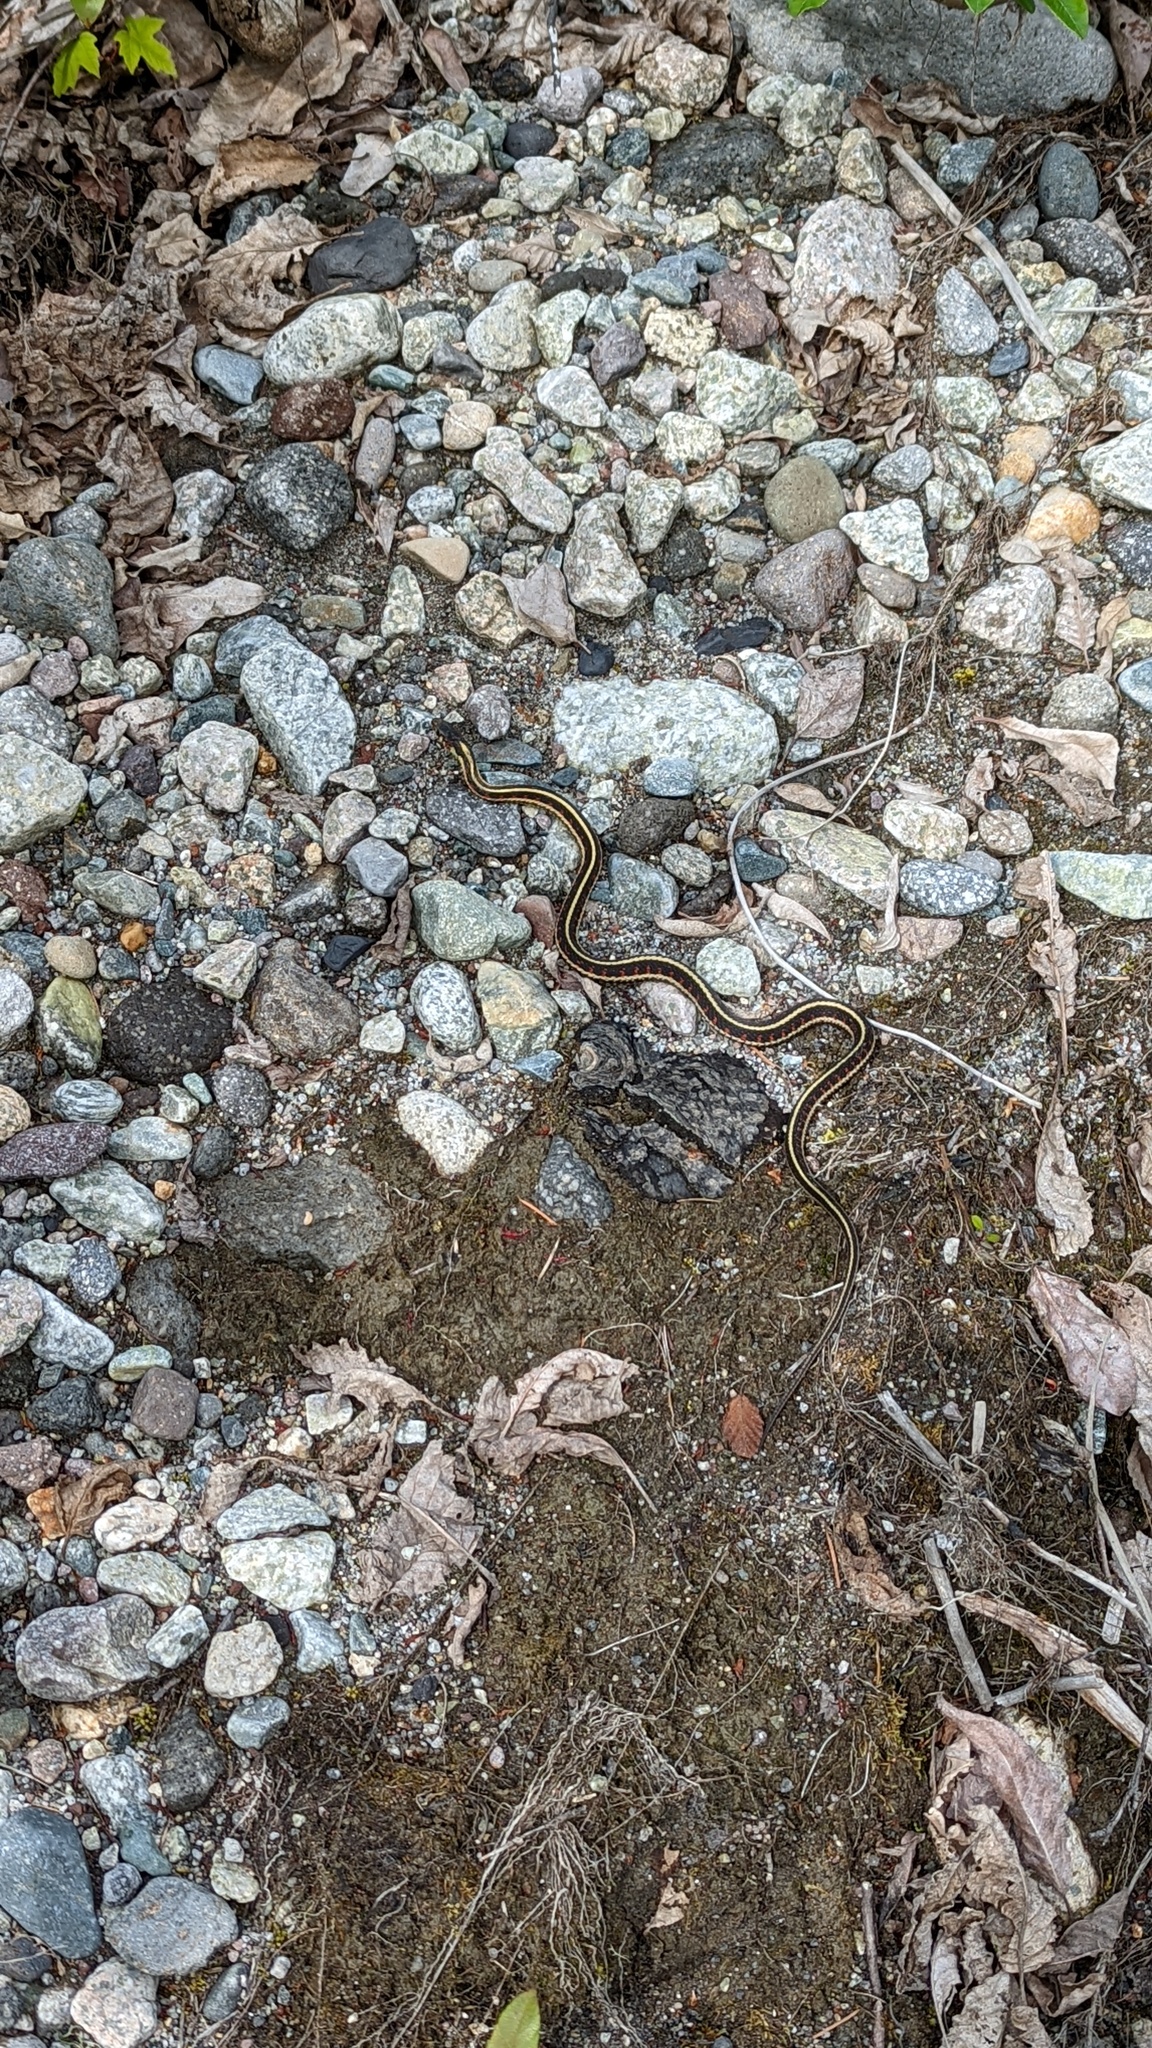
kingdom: Animalia
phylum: Chordata
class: Squamata
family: Colubridae
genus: Thamnophis
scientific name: Thamnophis sirtalis
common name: Common garter snake
